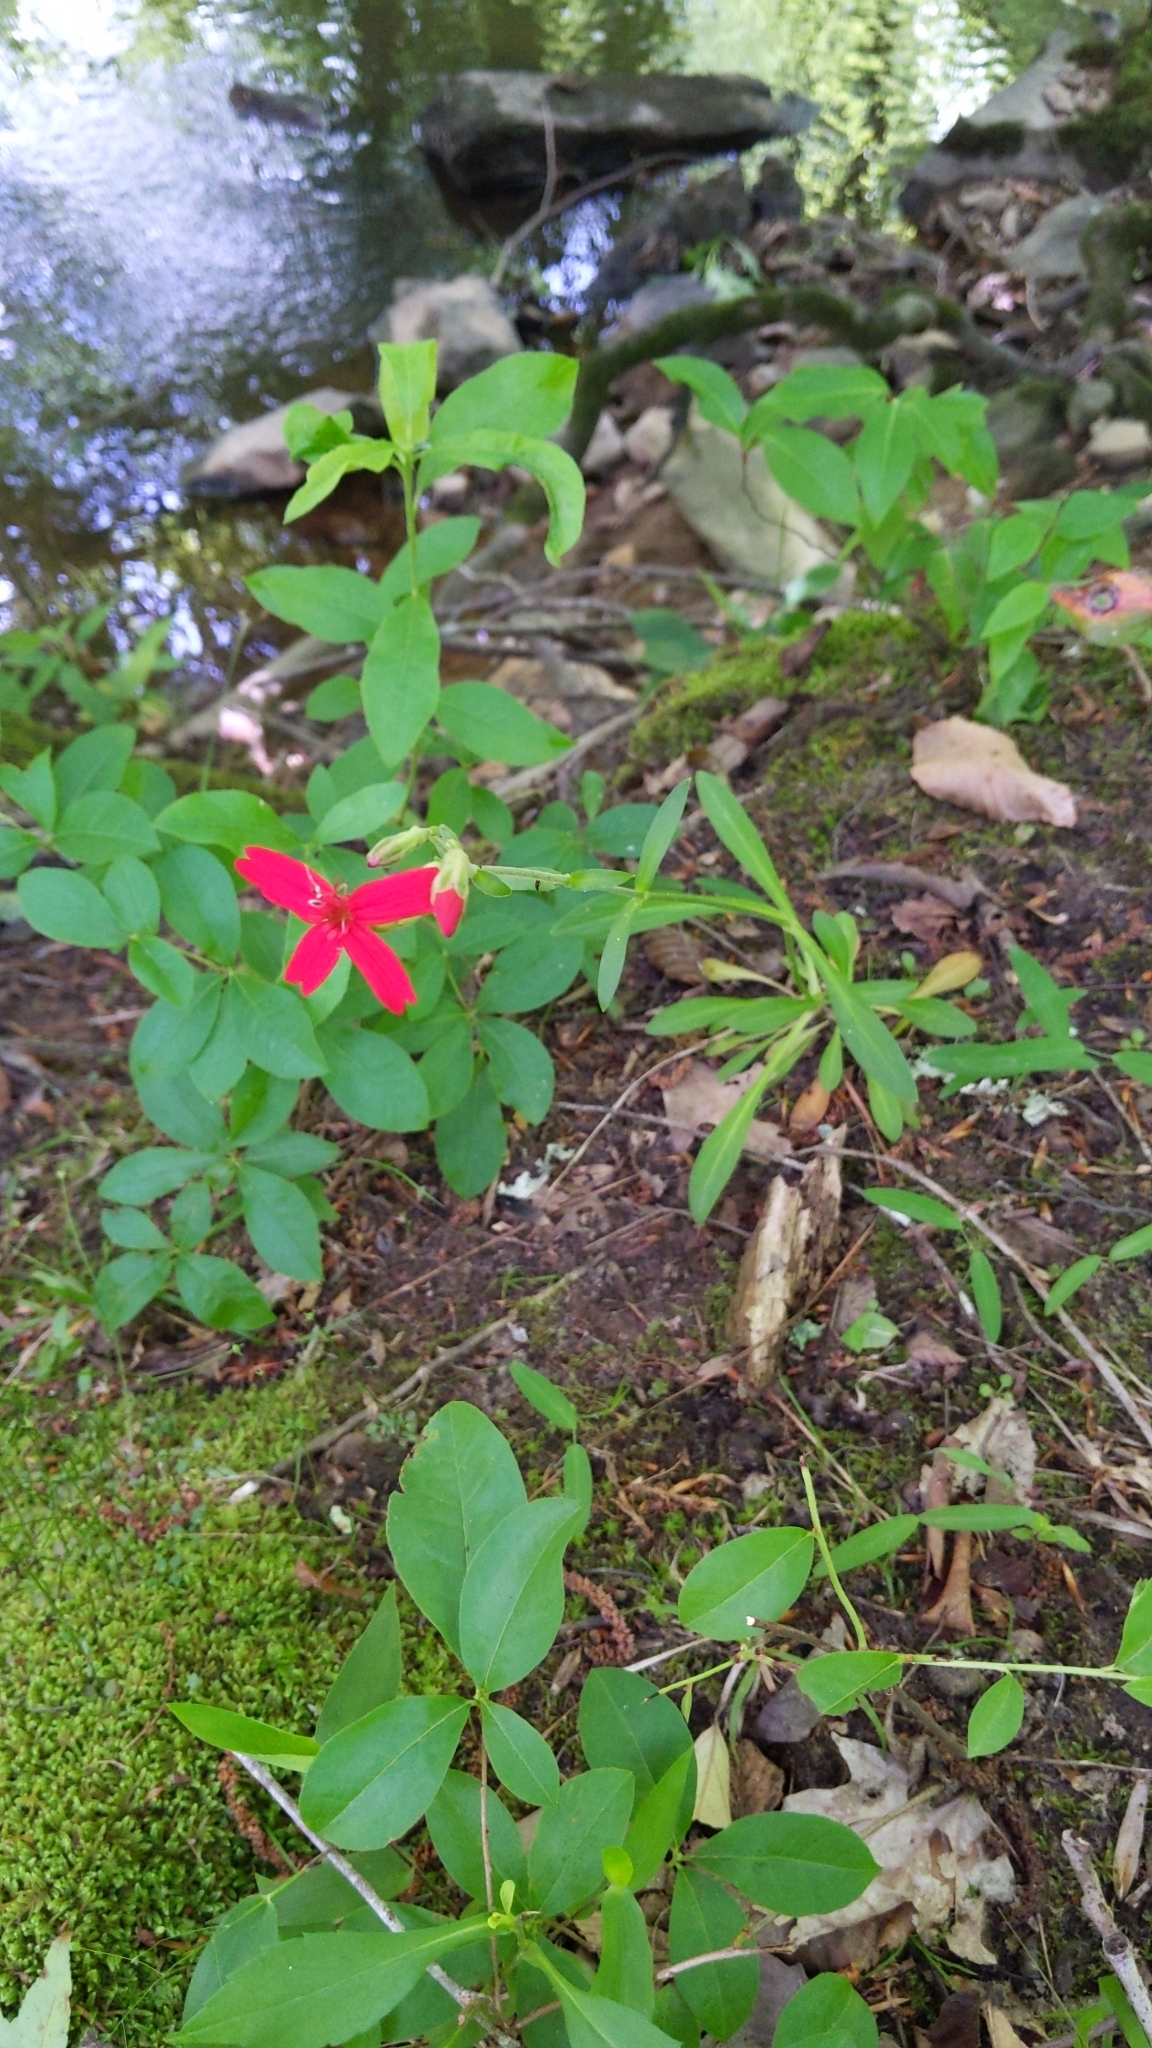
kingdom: Plantae
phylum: Tracheophyta
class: Magnoliopsida
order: Caryophyllales
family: Caryophyllaceae
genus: Silene
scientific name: Silene virginica
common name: Fire-pink
